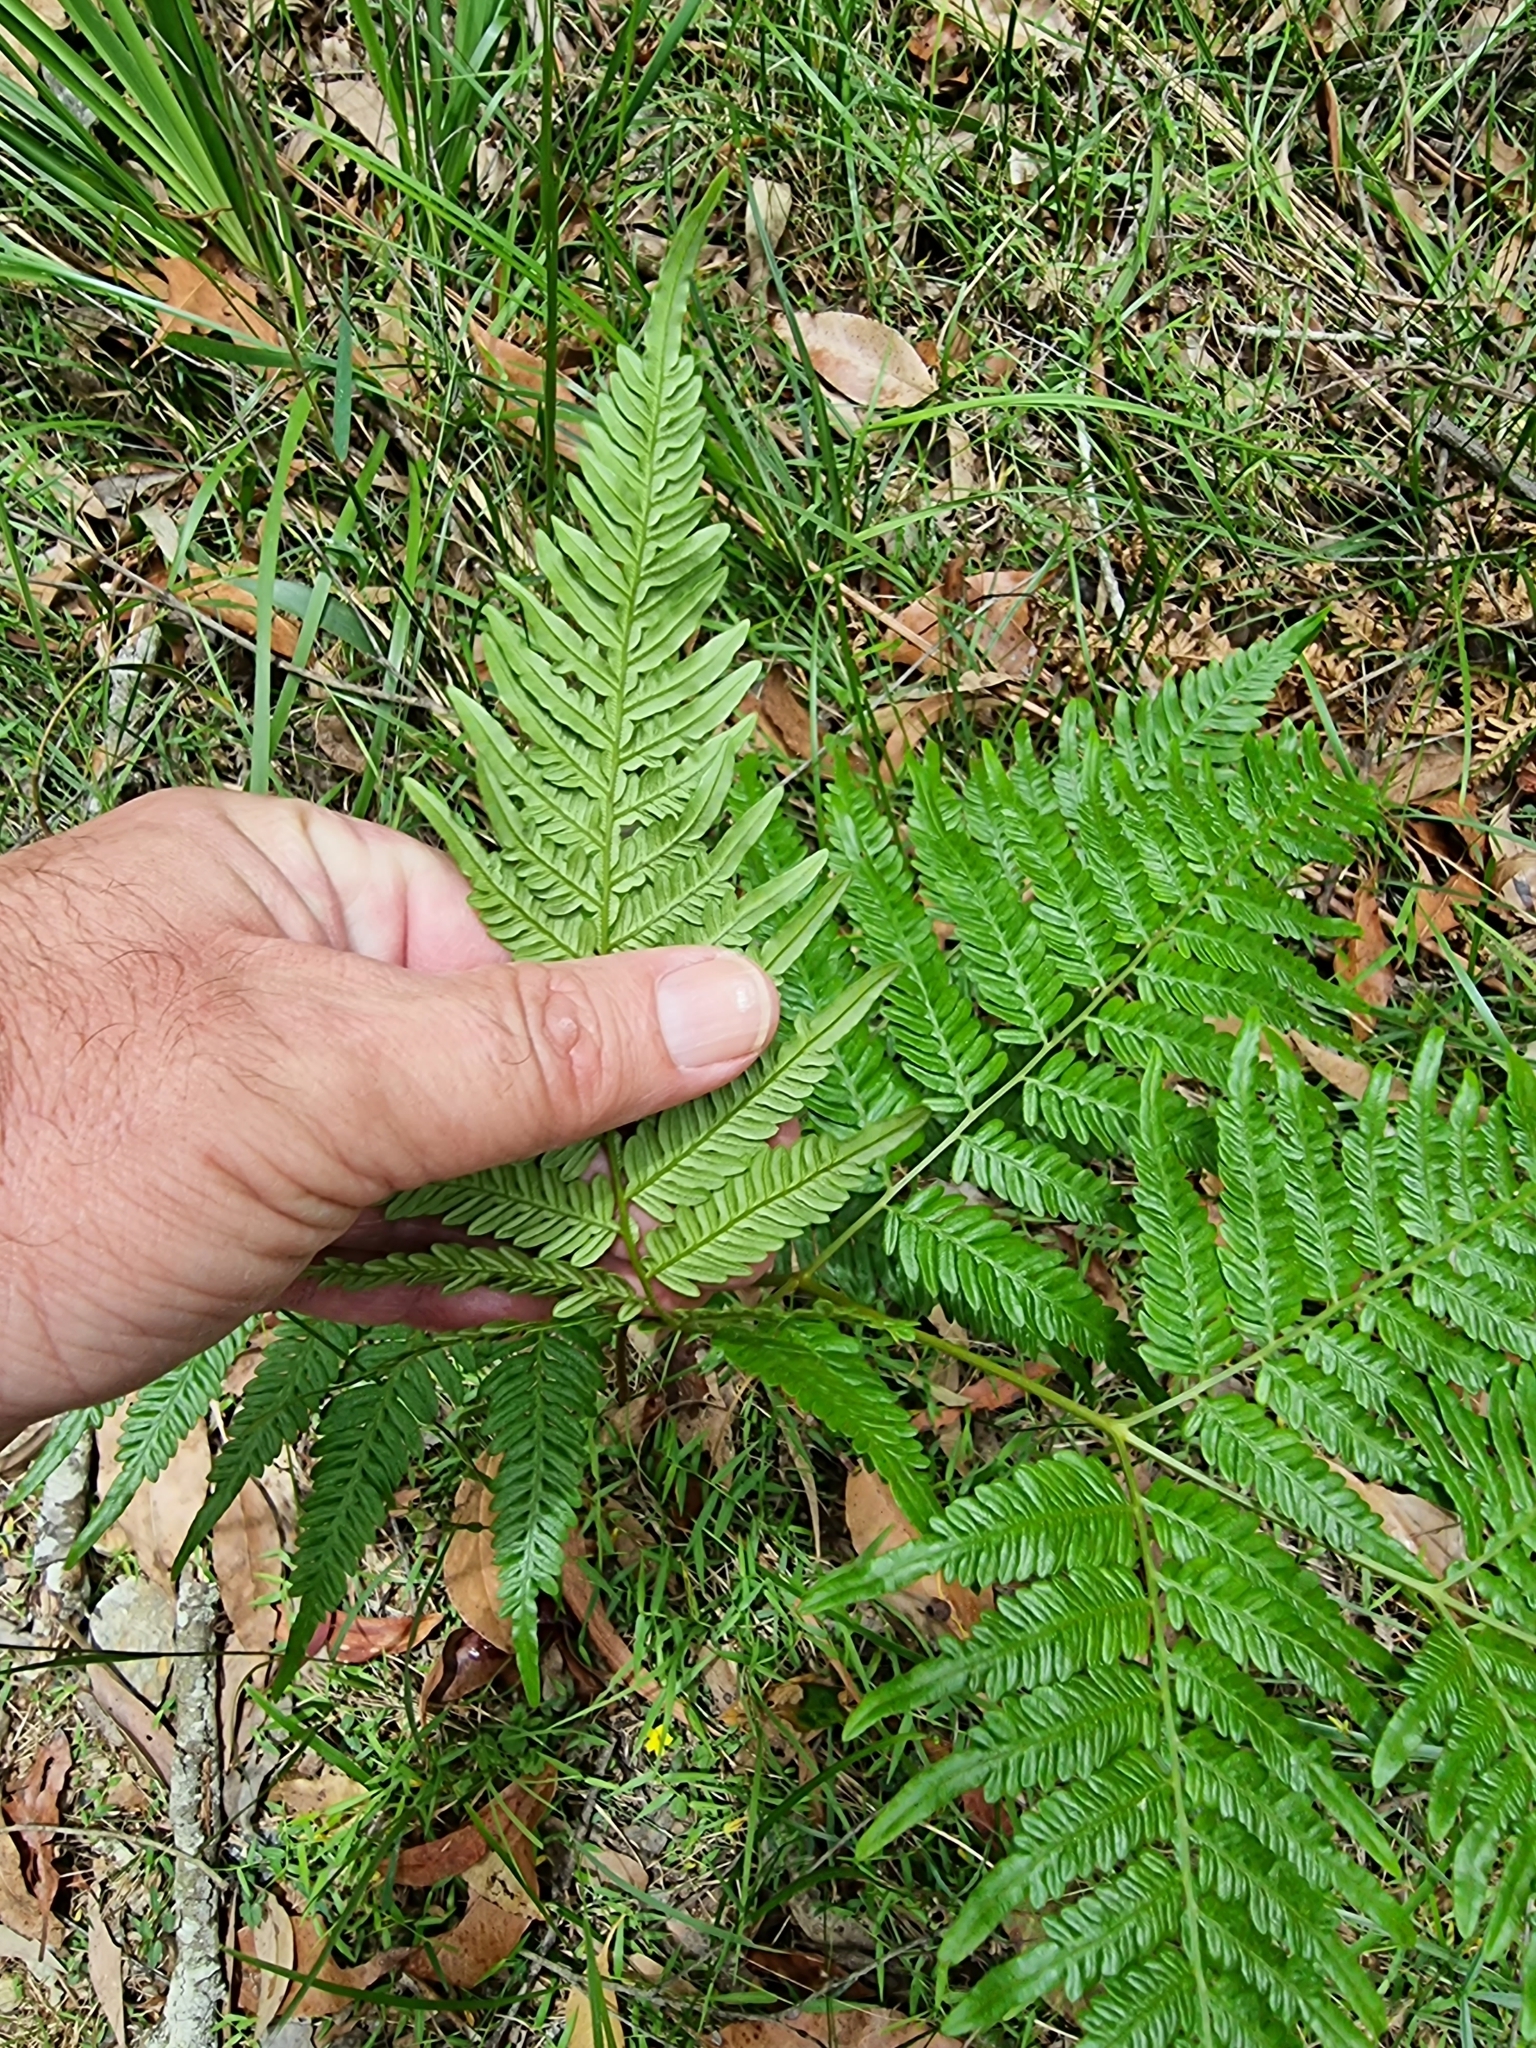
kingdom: Plantae
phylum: Tracheophyta
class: Polypodiopsida
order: Polypodiales
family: Dennstaedtiaceae
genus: Pteridium
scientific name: Pteridium esculentum
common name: Bracken fern
